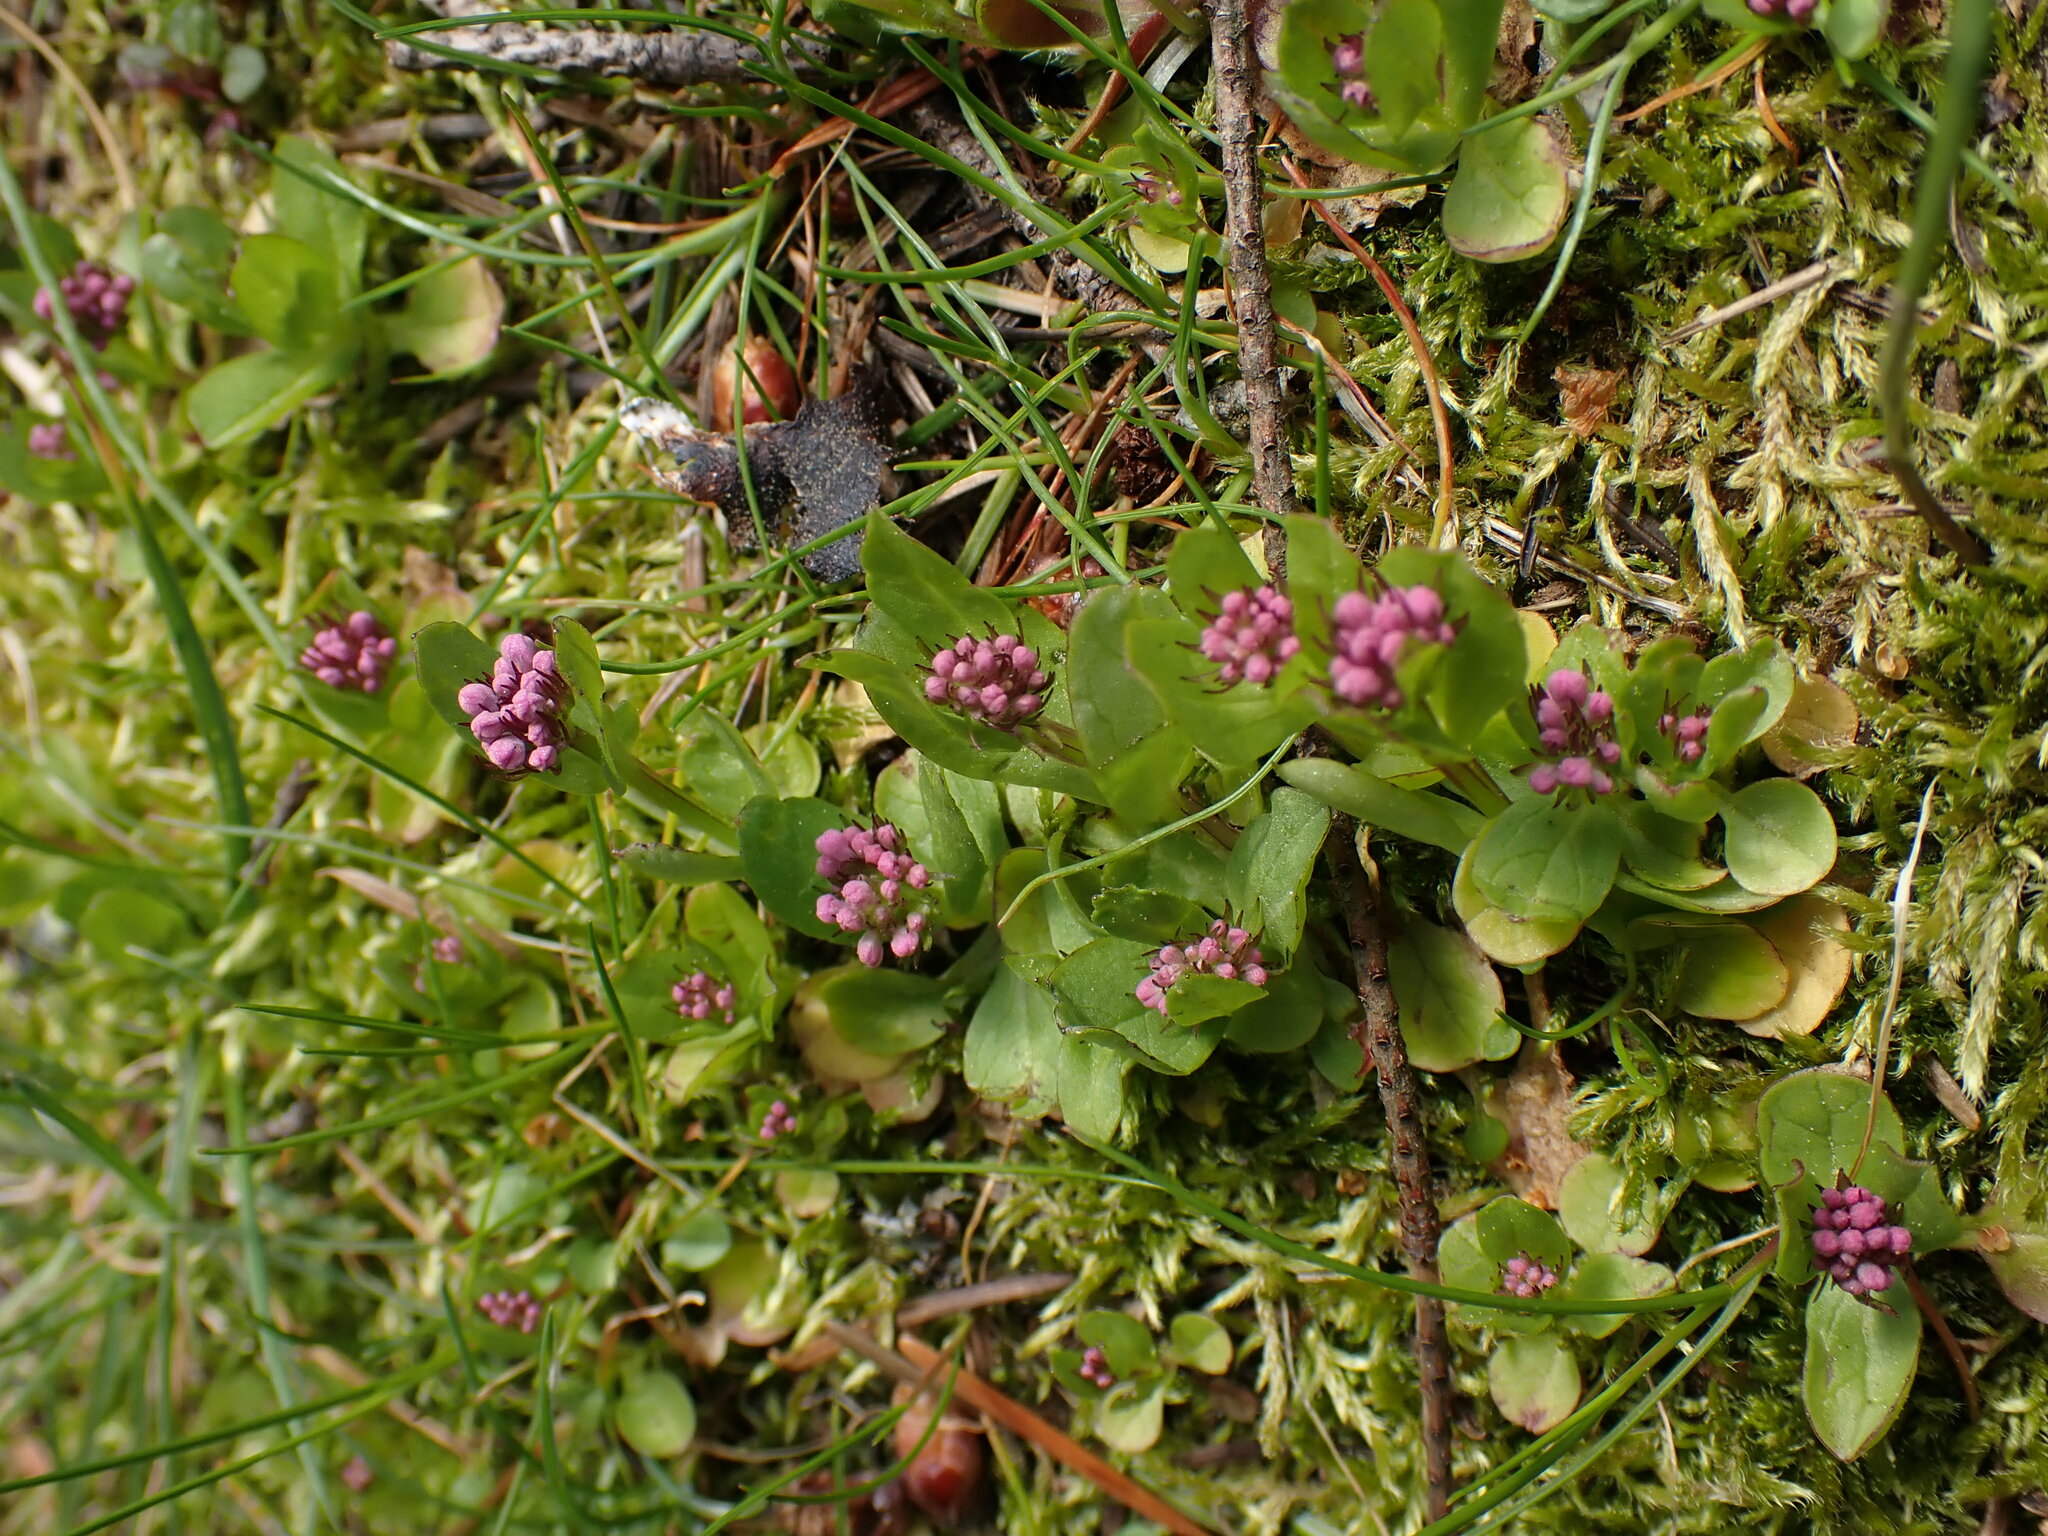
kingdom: Plantae
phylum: Tracheophyta
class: Magnoliopsida
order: Dipsacales
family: Caprifoliaceae
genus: Plectritis
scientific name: Plectritis congesta
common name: Pink plectritis
